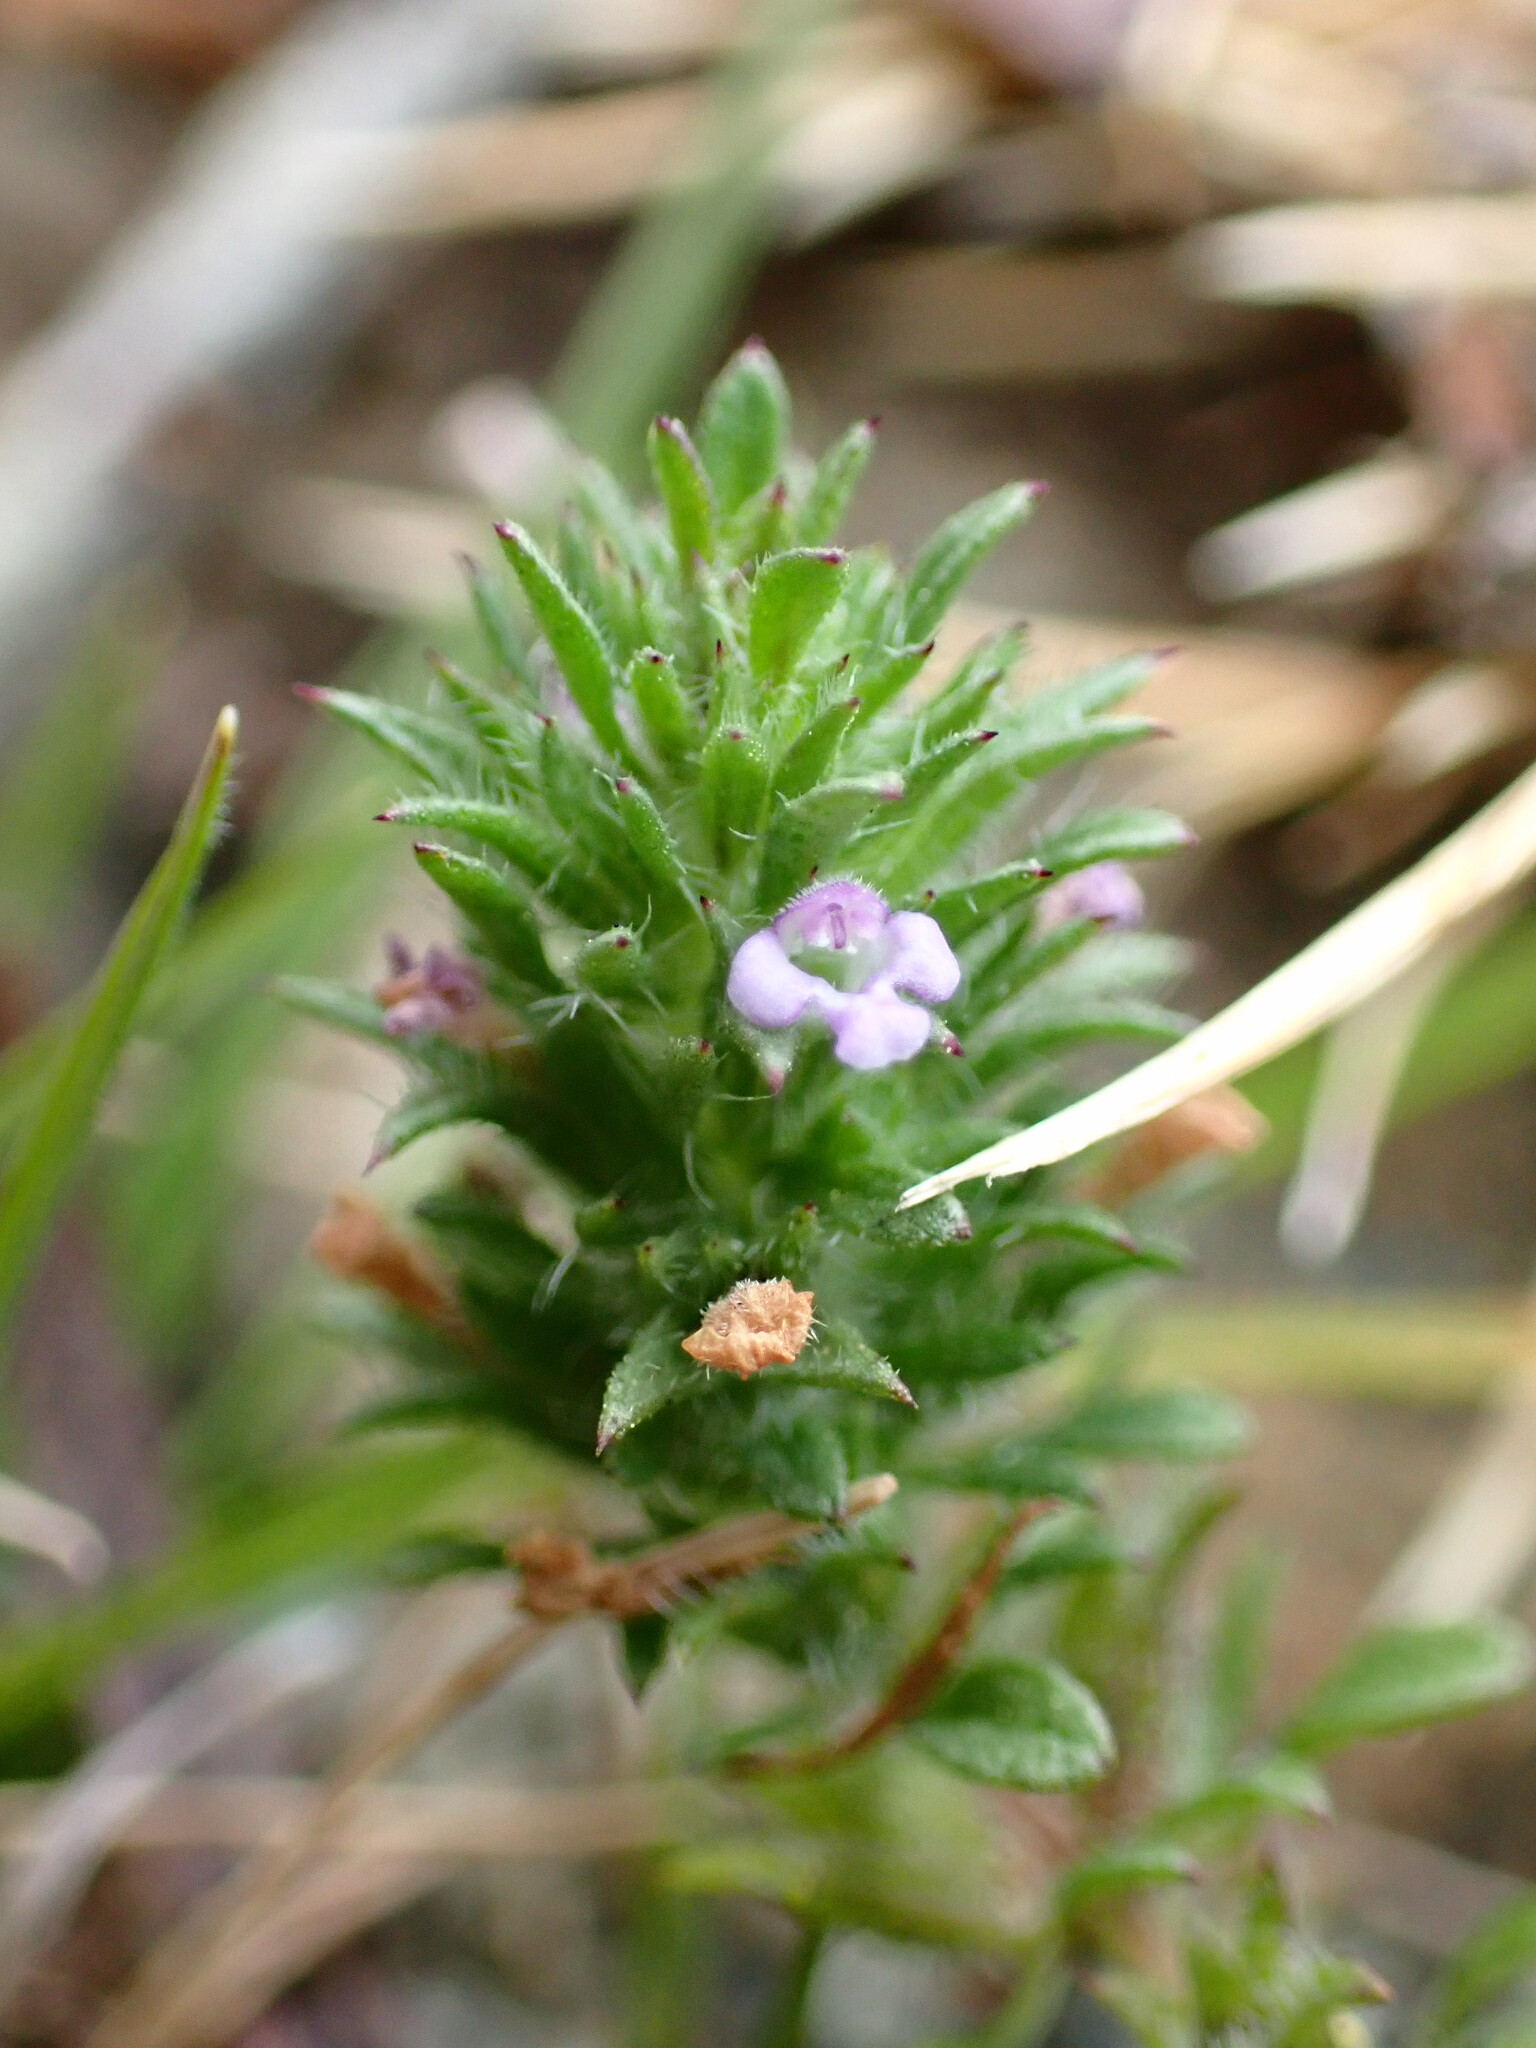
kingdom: Plantae
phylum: Tracheophyta
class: Magnoliopsida
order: Lamiales
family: Lamiaceae
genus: Pogogyne
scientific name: Pogogyne serpylloides
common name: Thymeleaf mesamint
